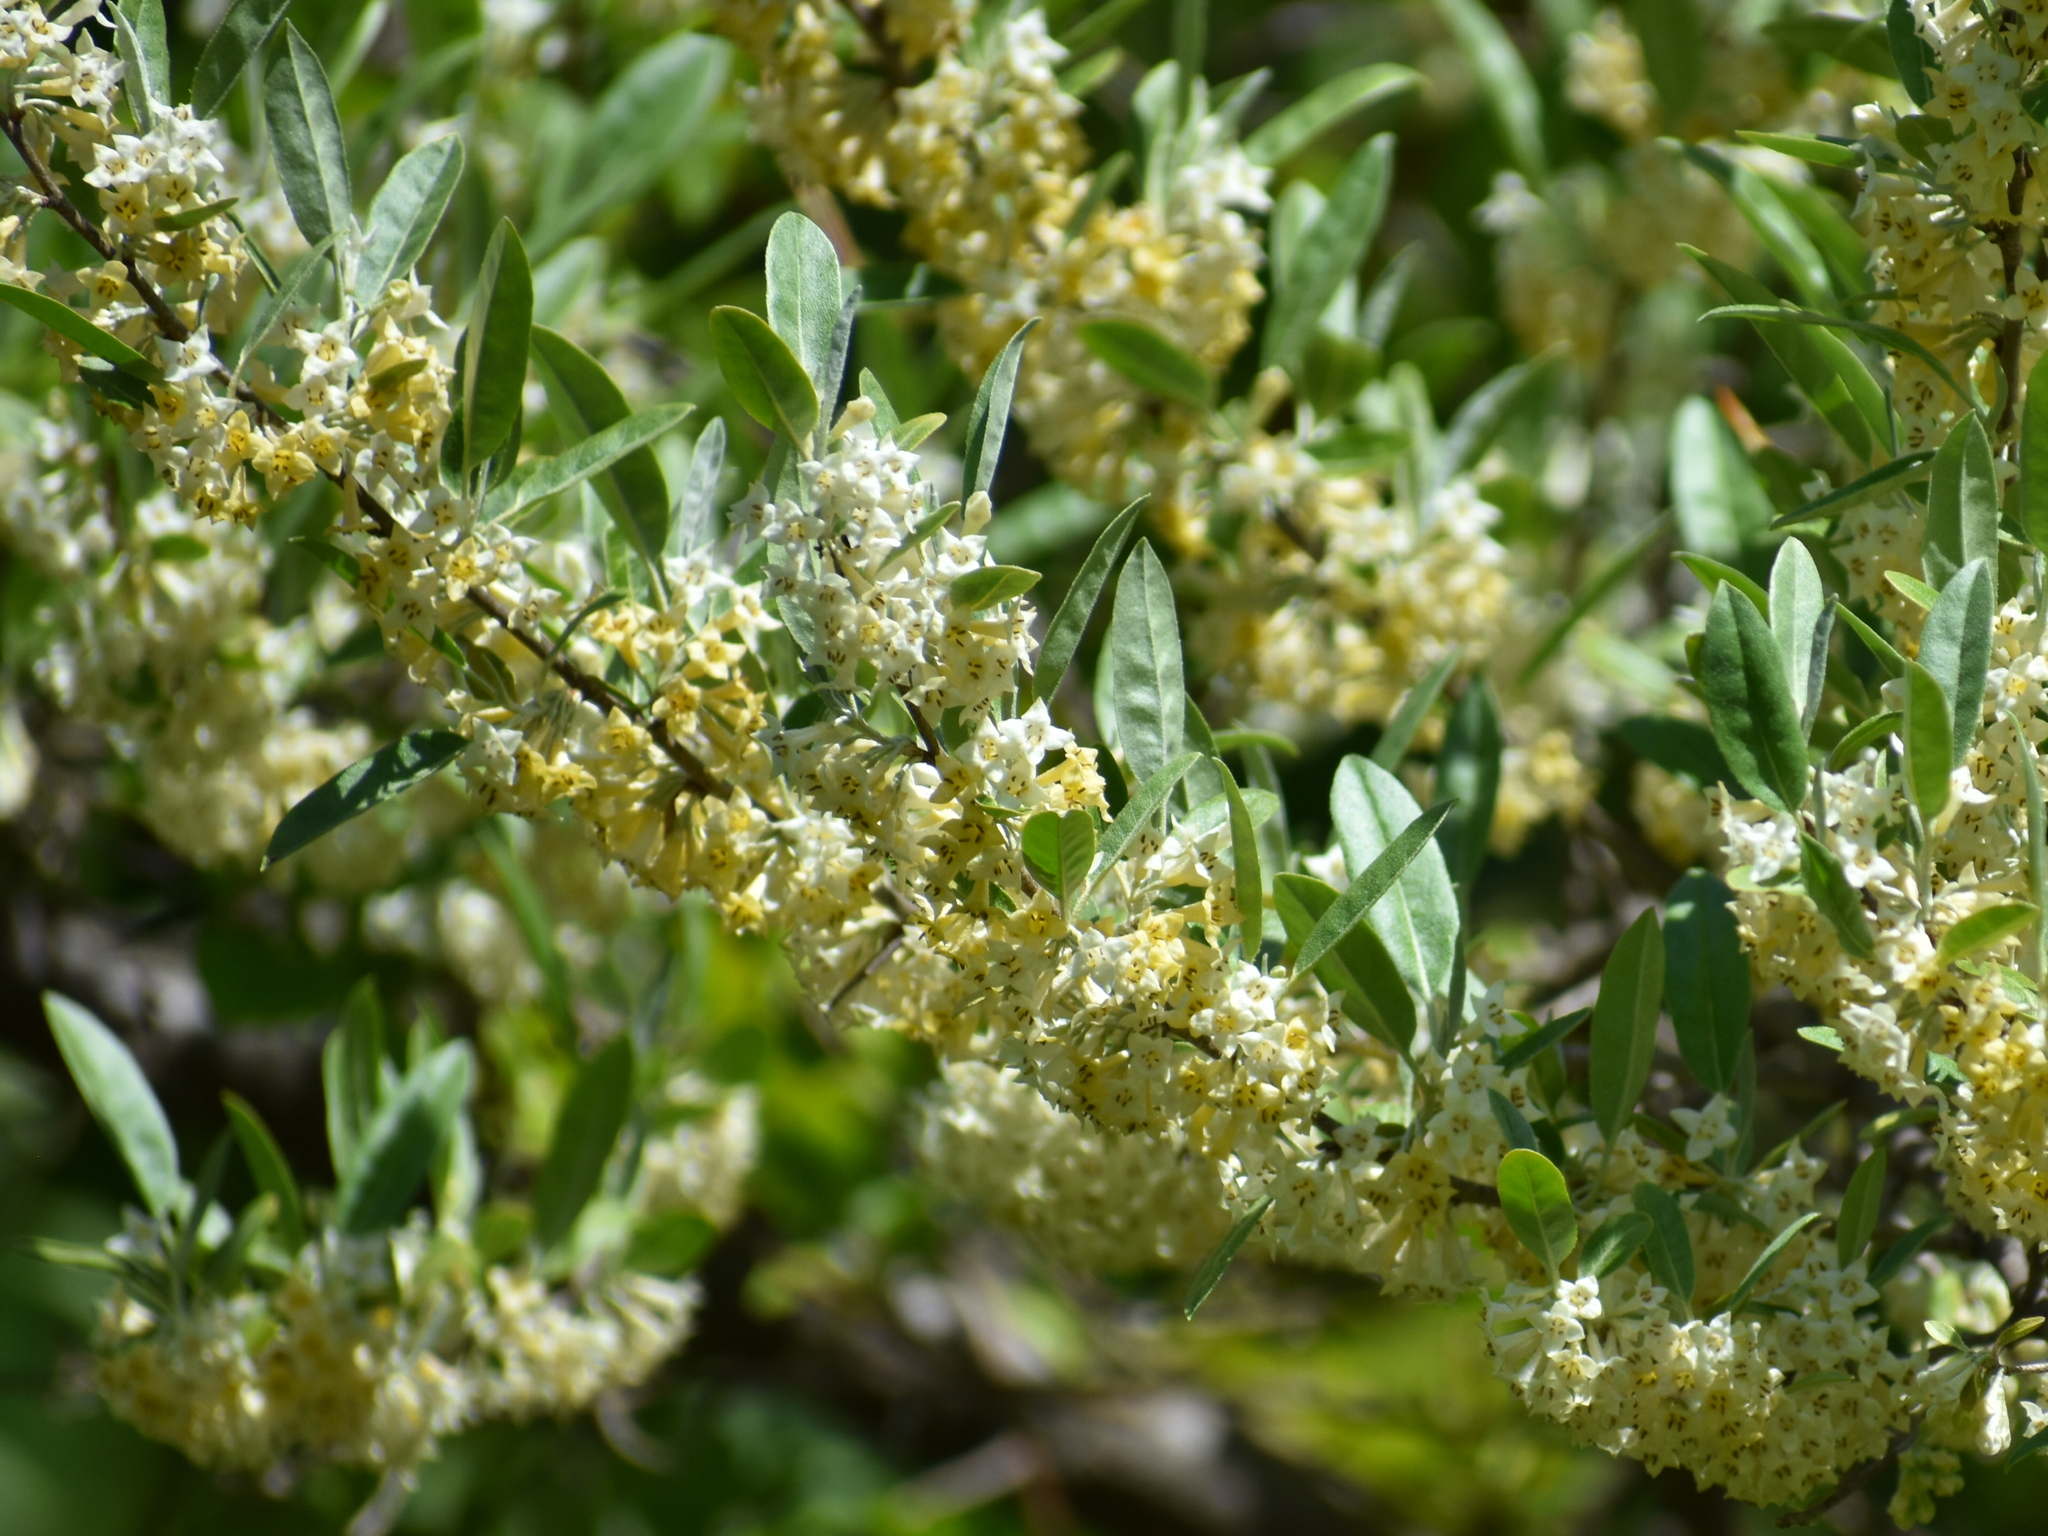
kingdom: Plantae
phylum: Tracheophyta
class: Magnoliopsida
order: Rosales
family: Elaeagnaceae
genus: Elaeagnus
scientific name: Elaeagnus umbellata
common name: Autumn olive
